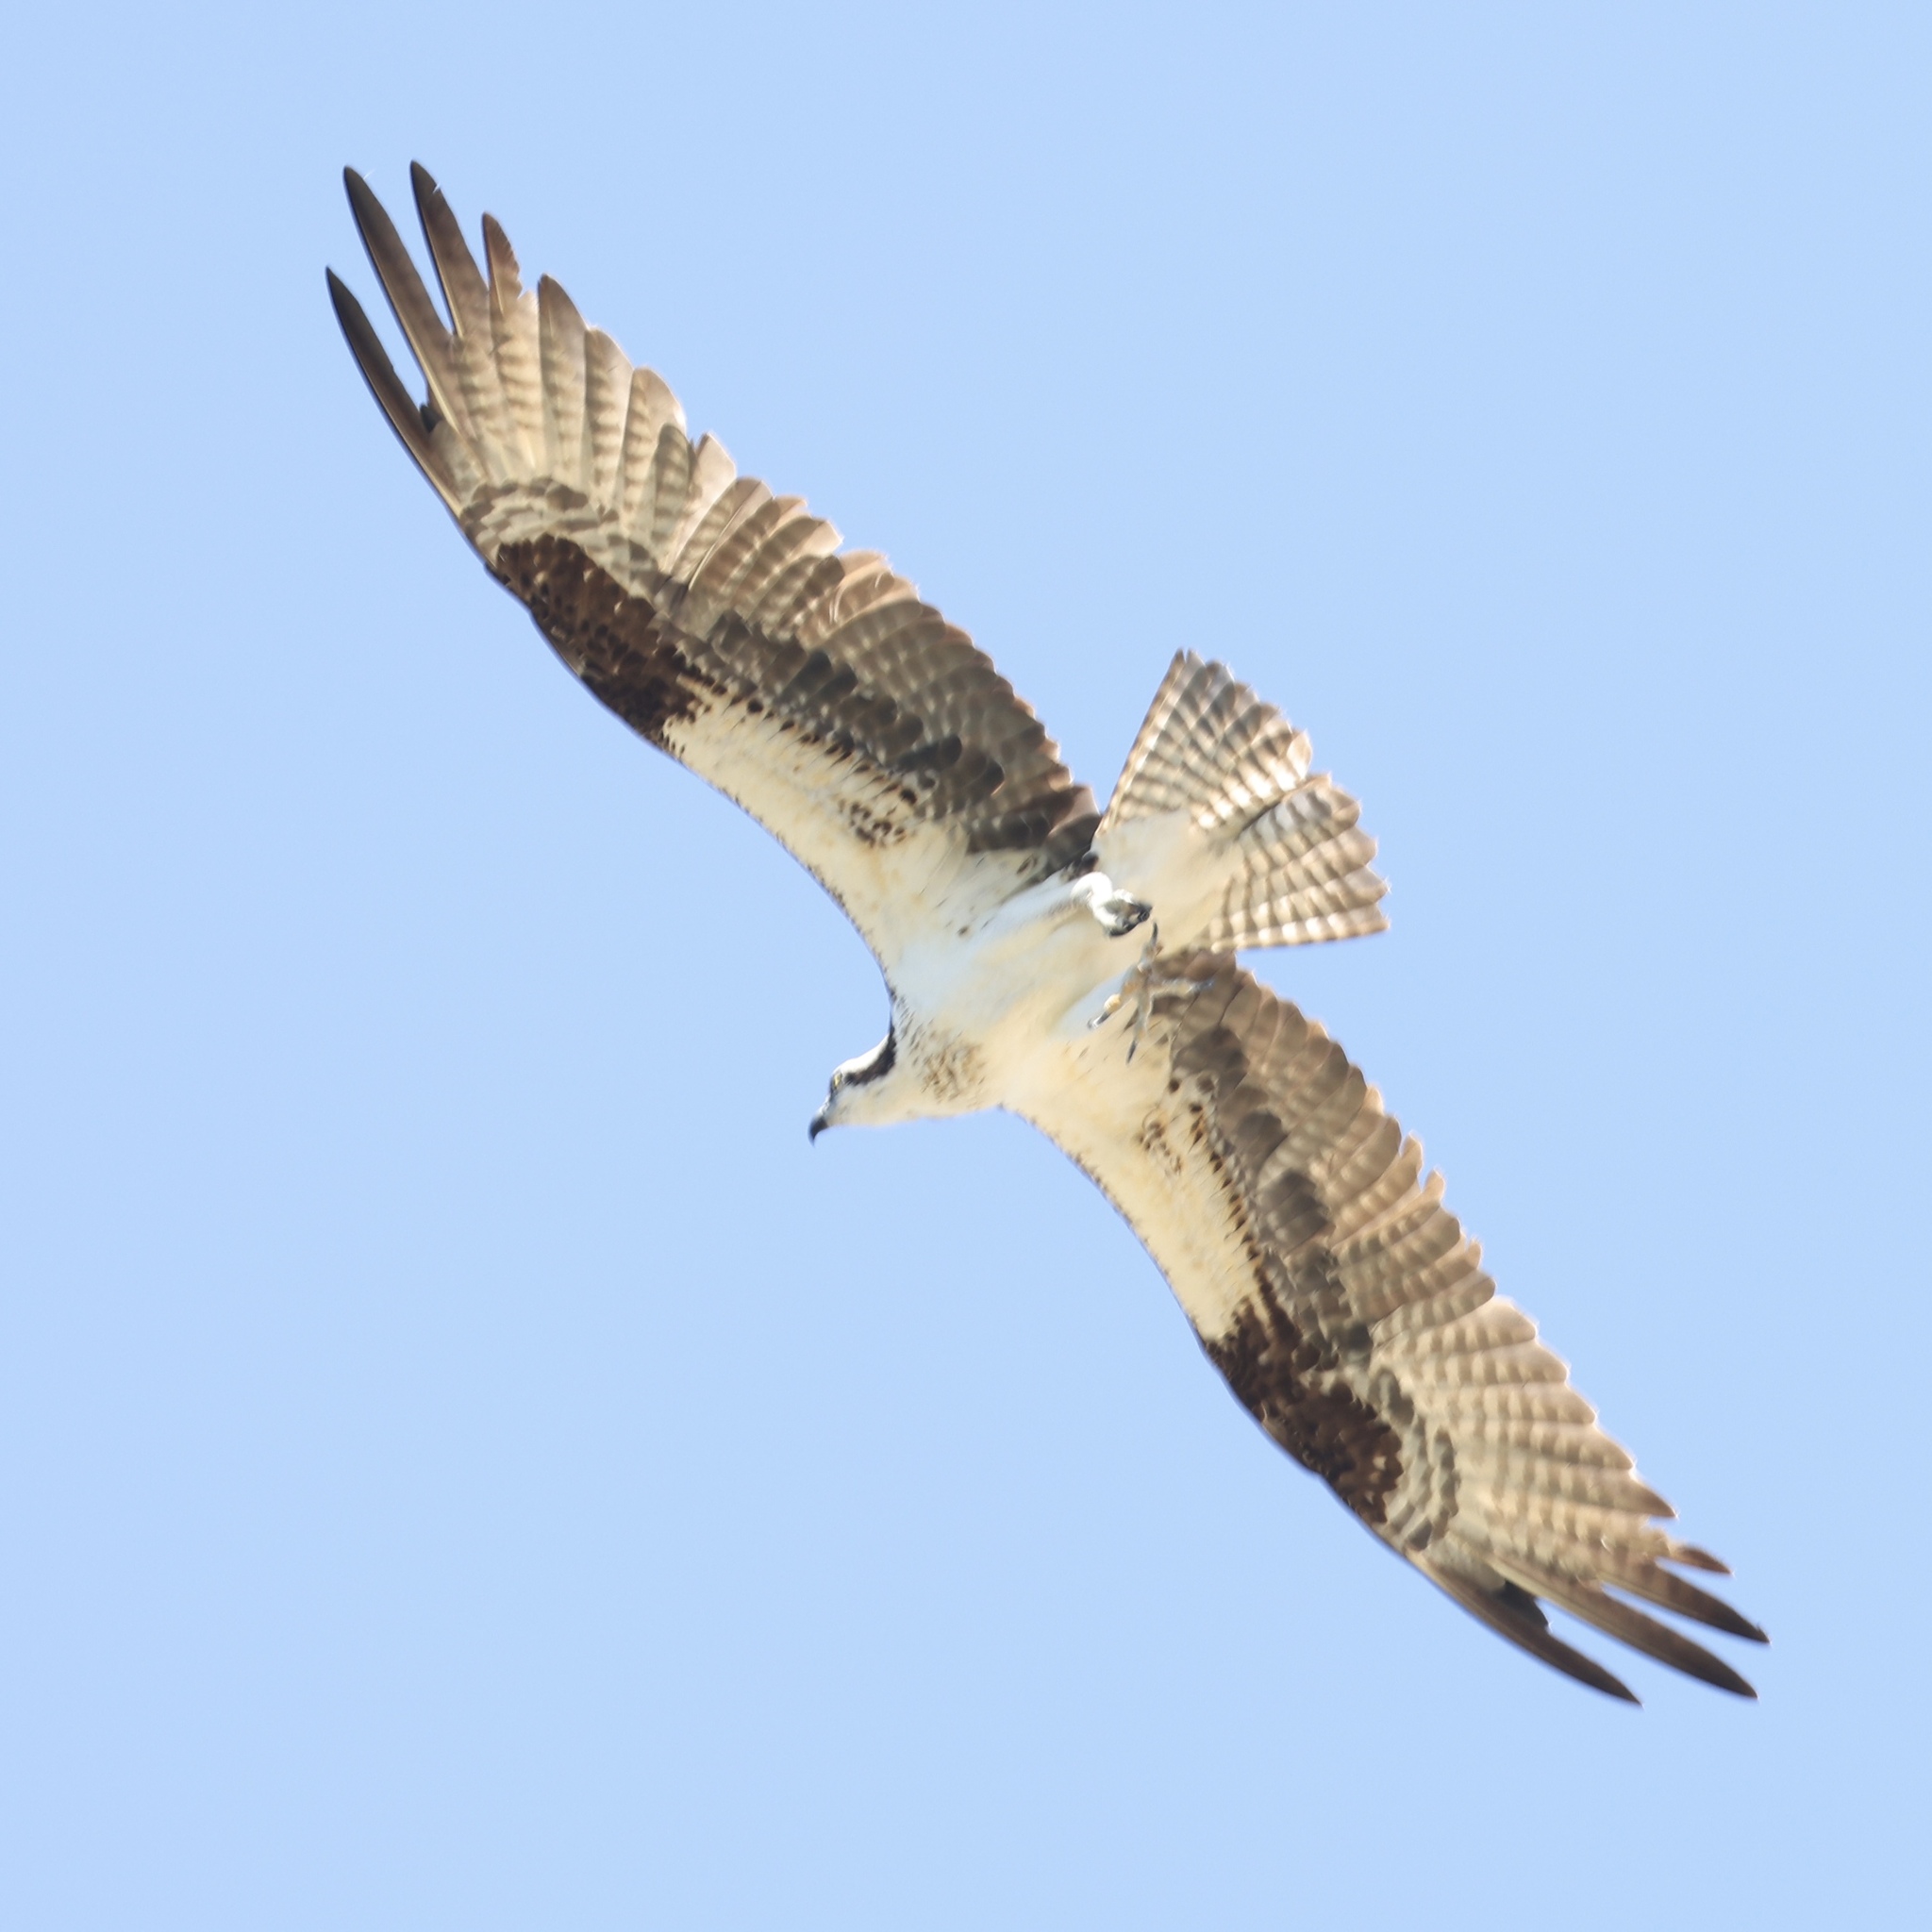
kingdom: Animalia
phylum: Chordata
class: Aves
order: Accipitriformes
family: Pandionidae
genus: Pandion
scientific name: Pandion haliaetus
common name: Osprey
